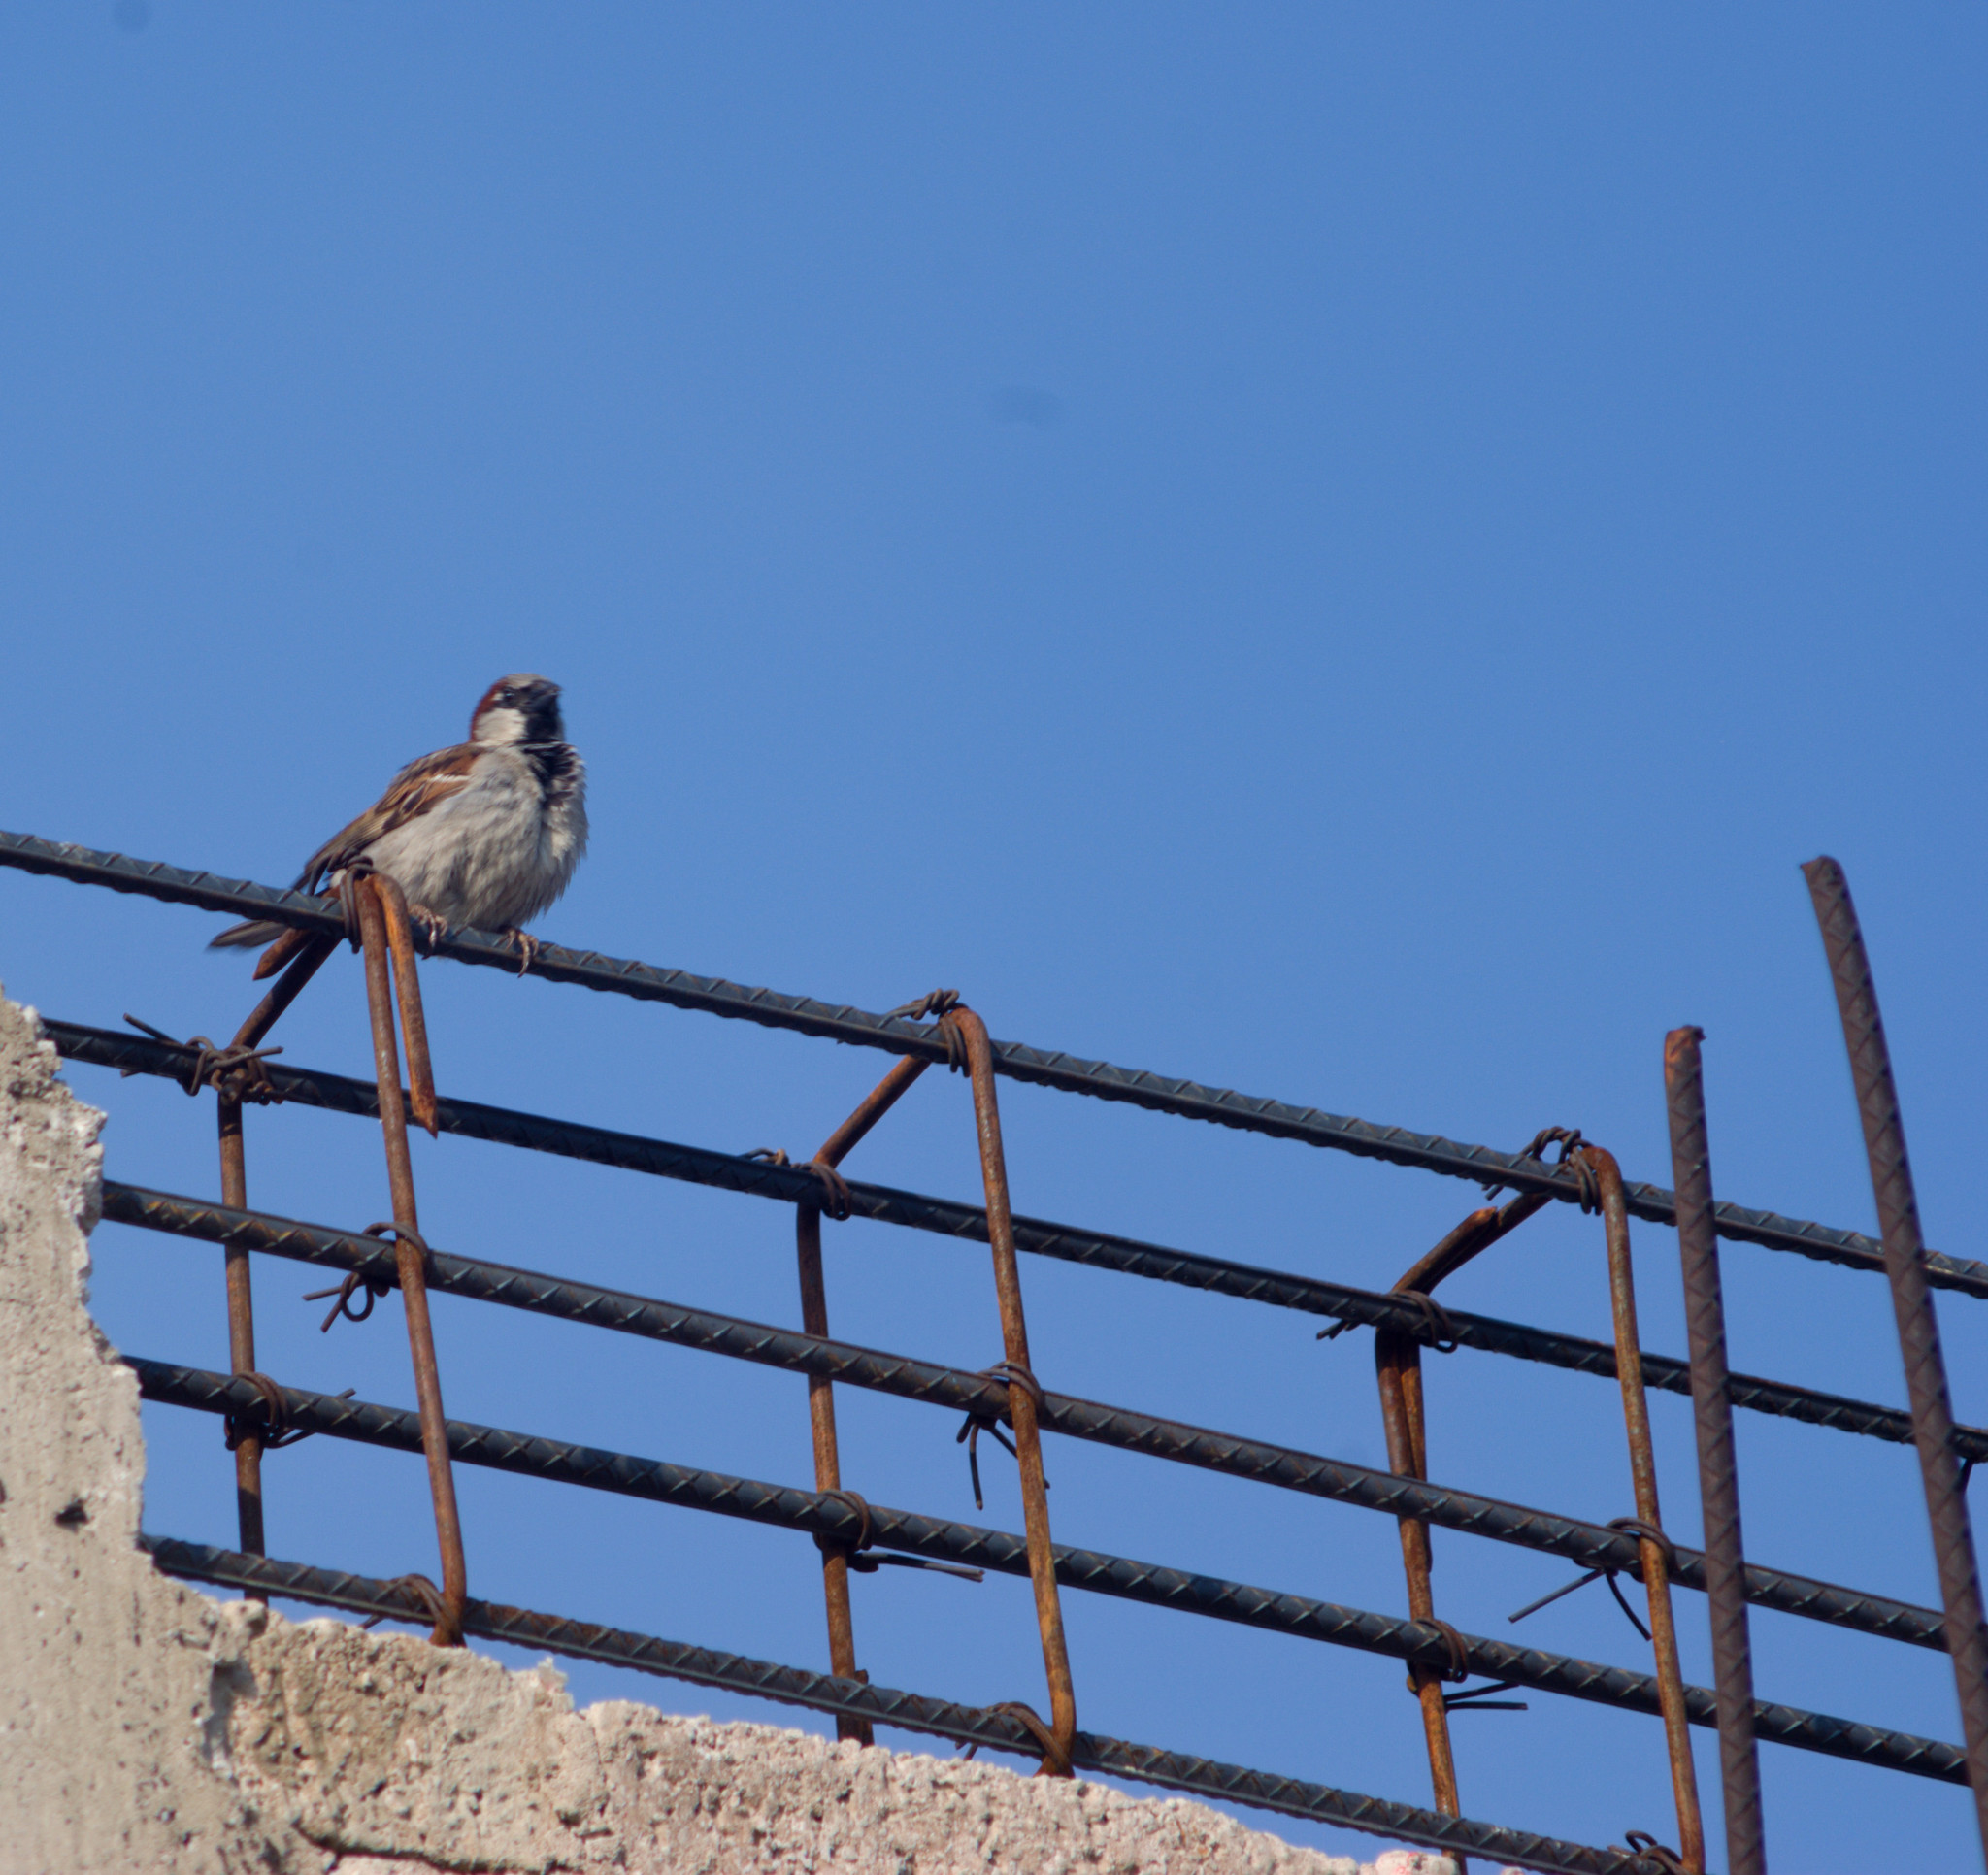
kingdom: Animalia
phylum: Chordata
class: Aves
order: Passeriformes
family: Passeridae
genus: Passer
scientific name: Passer domesticus
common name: House sparrow
